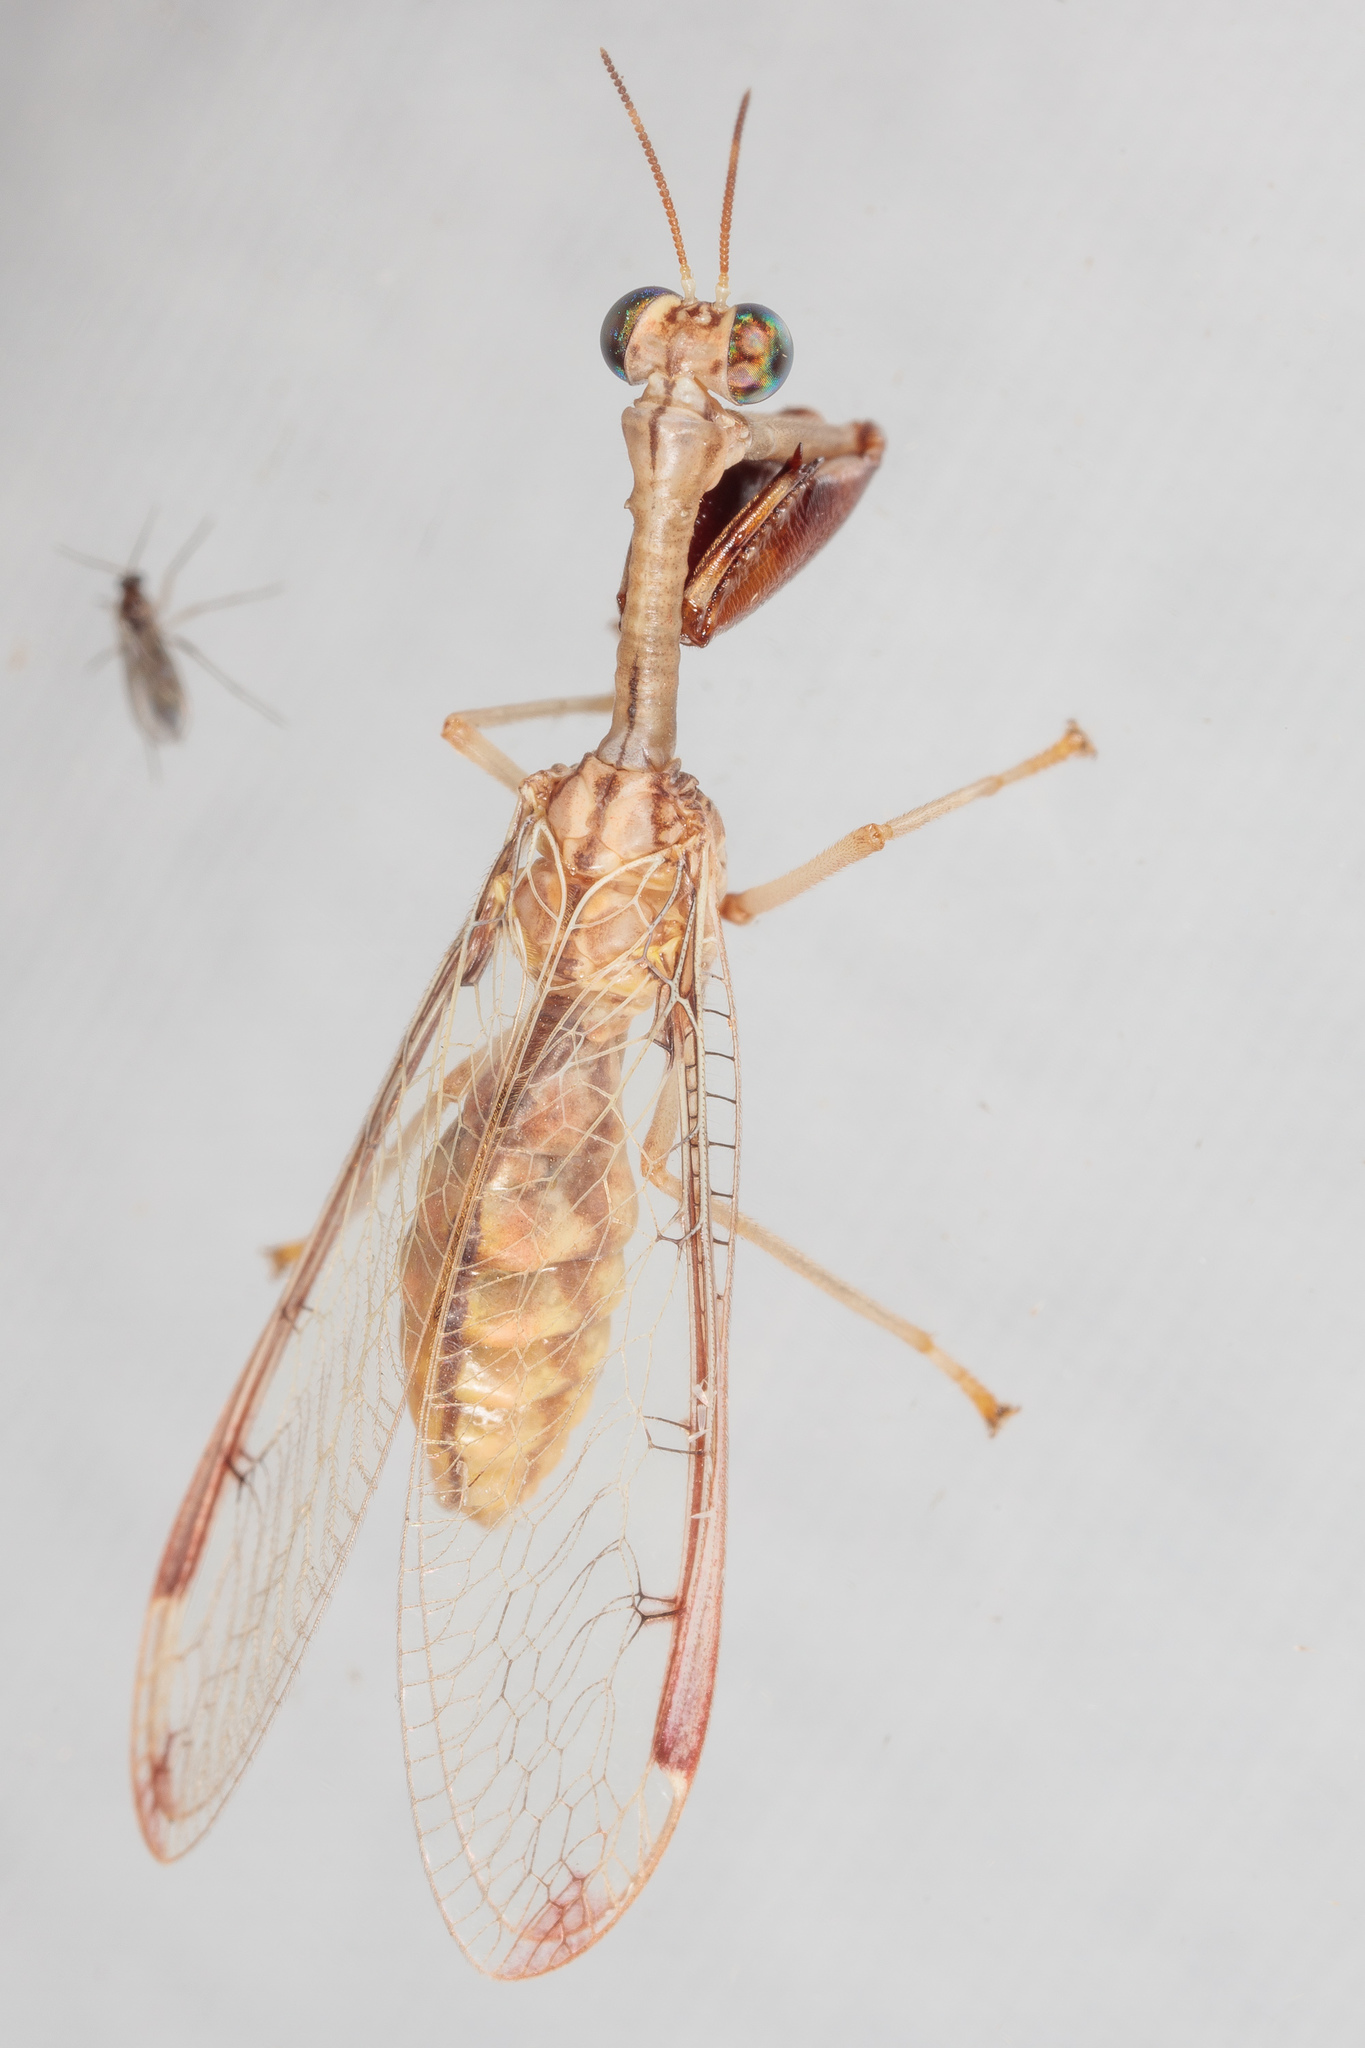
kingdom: Animalia
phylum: Arthropoda
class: Insecta
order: Neuroptera
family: Mantispidae
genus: Dicromantispa
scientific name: Dicromantispa interrupta
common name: Four-spotted mantidfly
